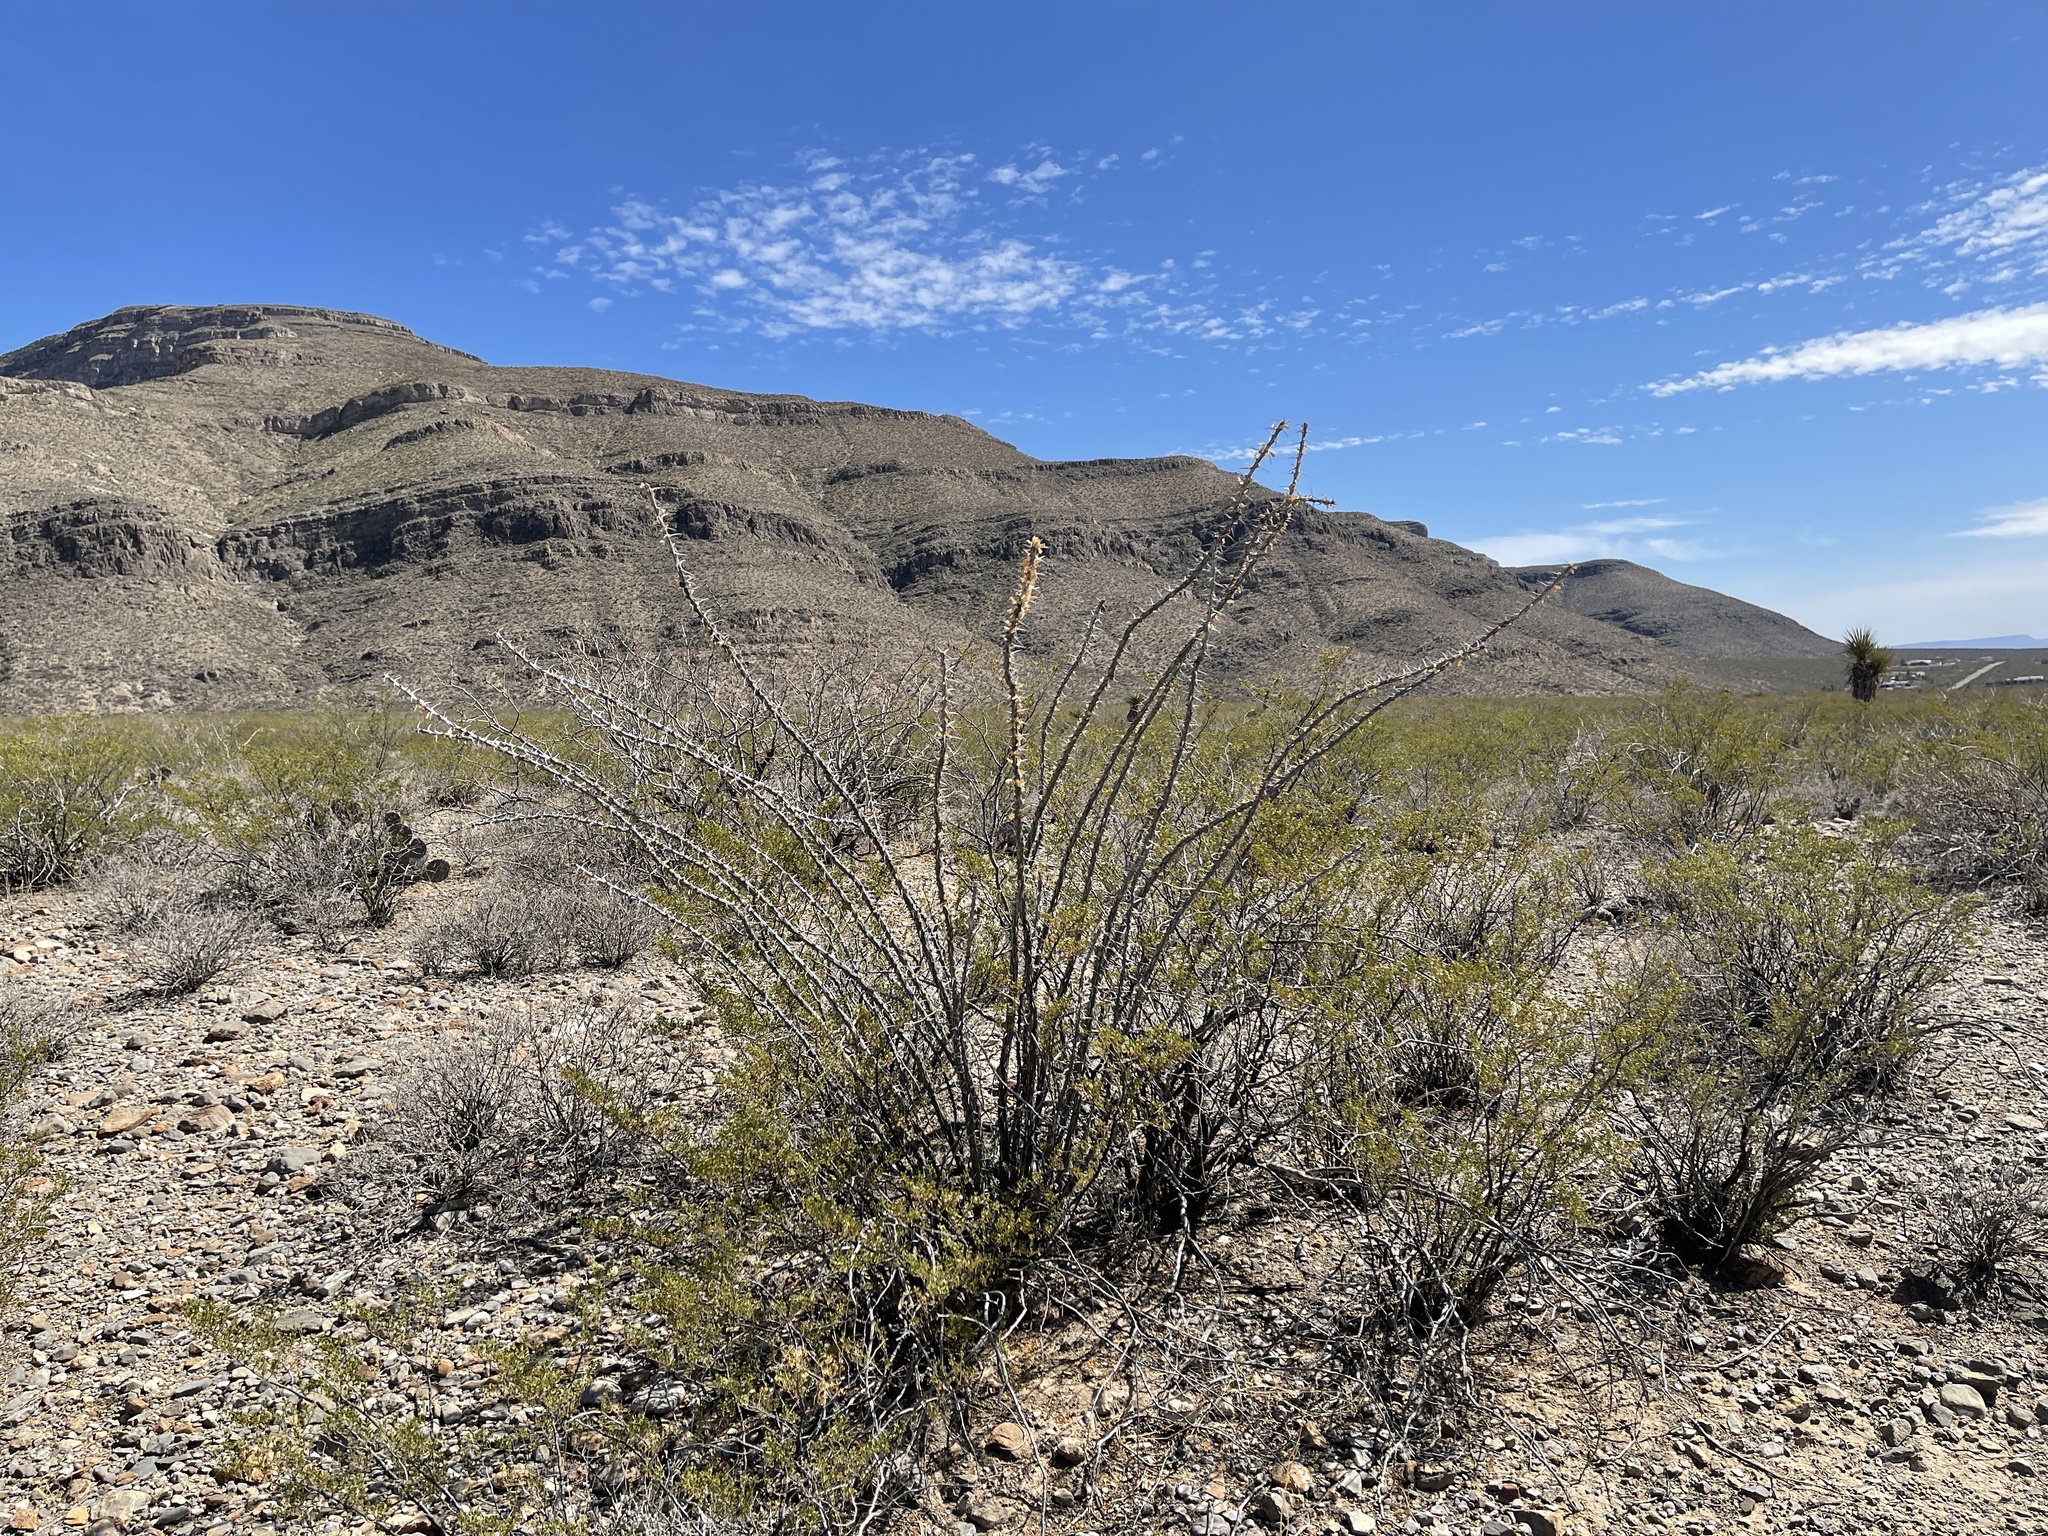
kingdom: Plantae
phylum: Tracheophyta
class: Magnoliopsida
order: Ericales
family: Fouquieriaceae
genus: Fouquieria
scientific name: Fouquieria splendens
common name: Vine-cactus
